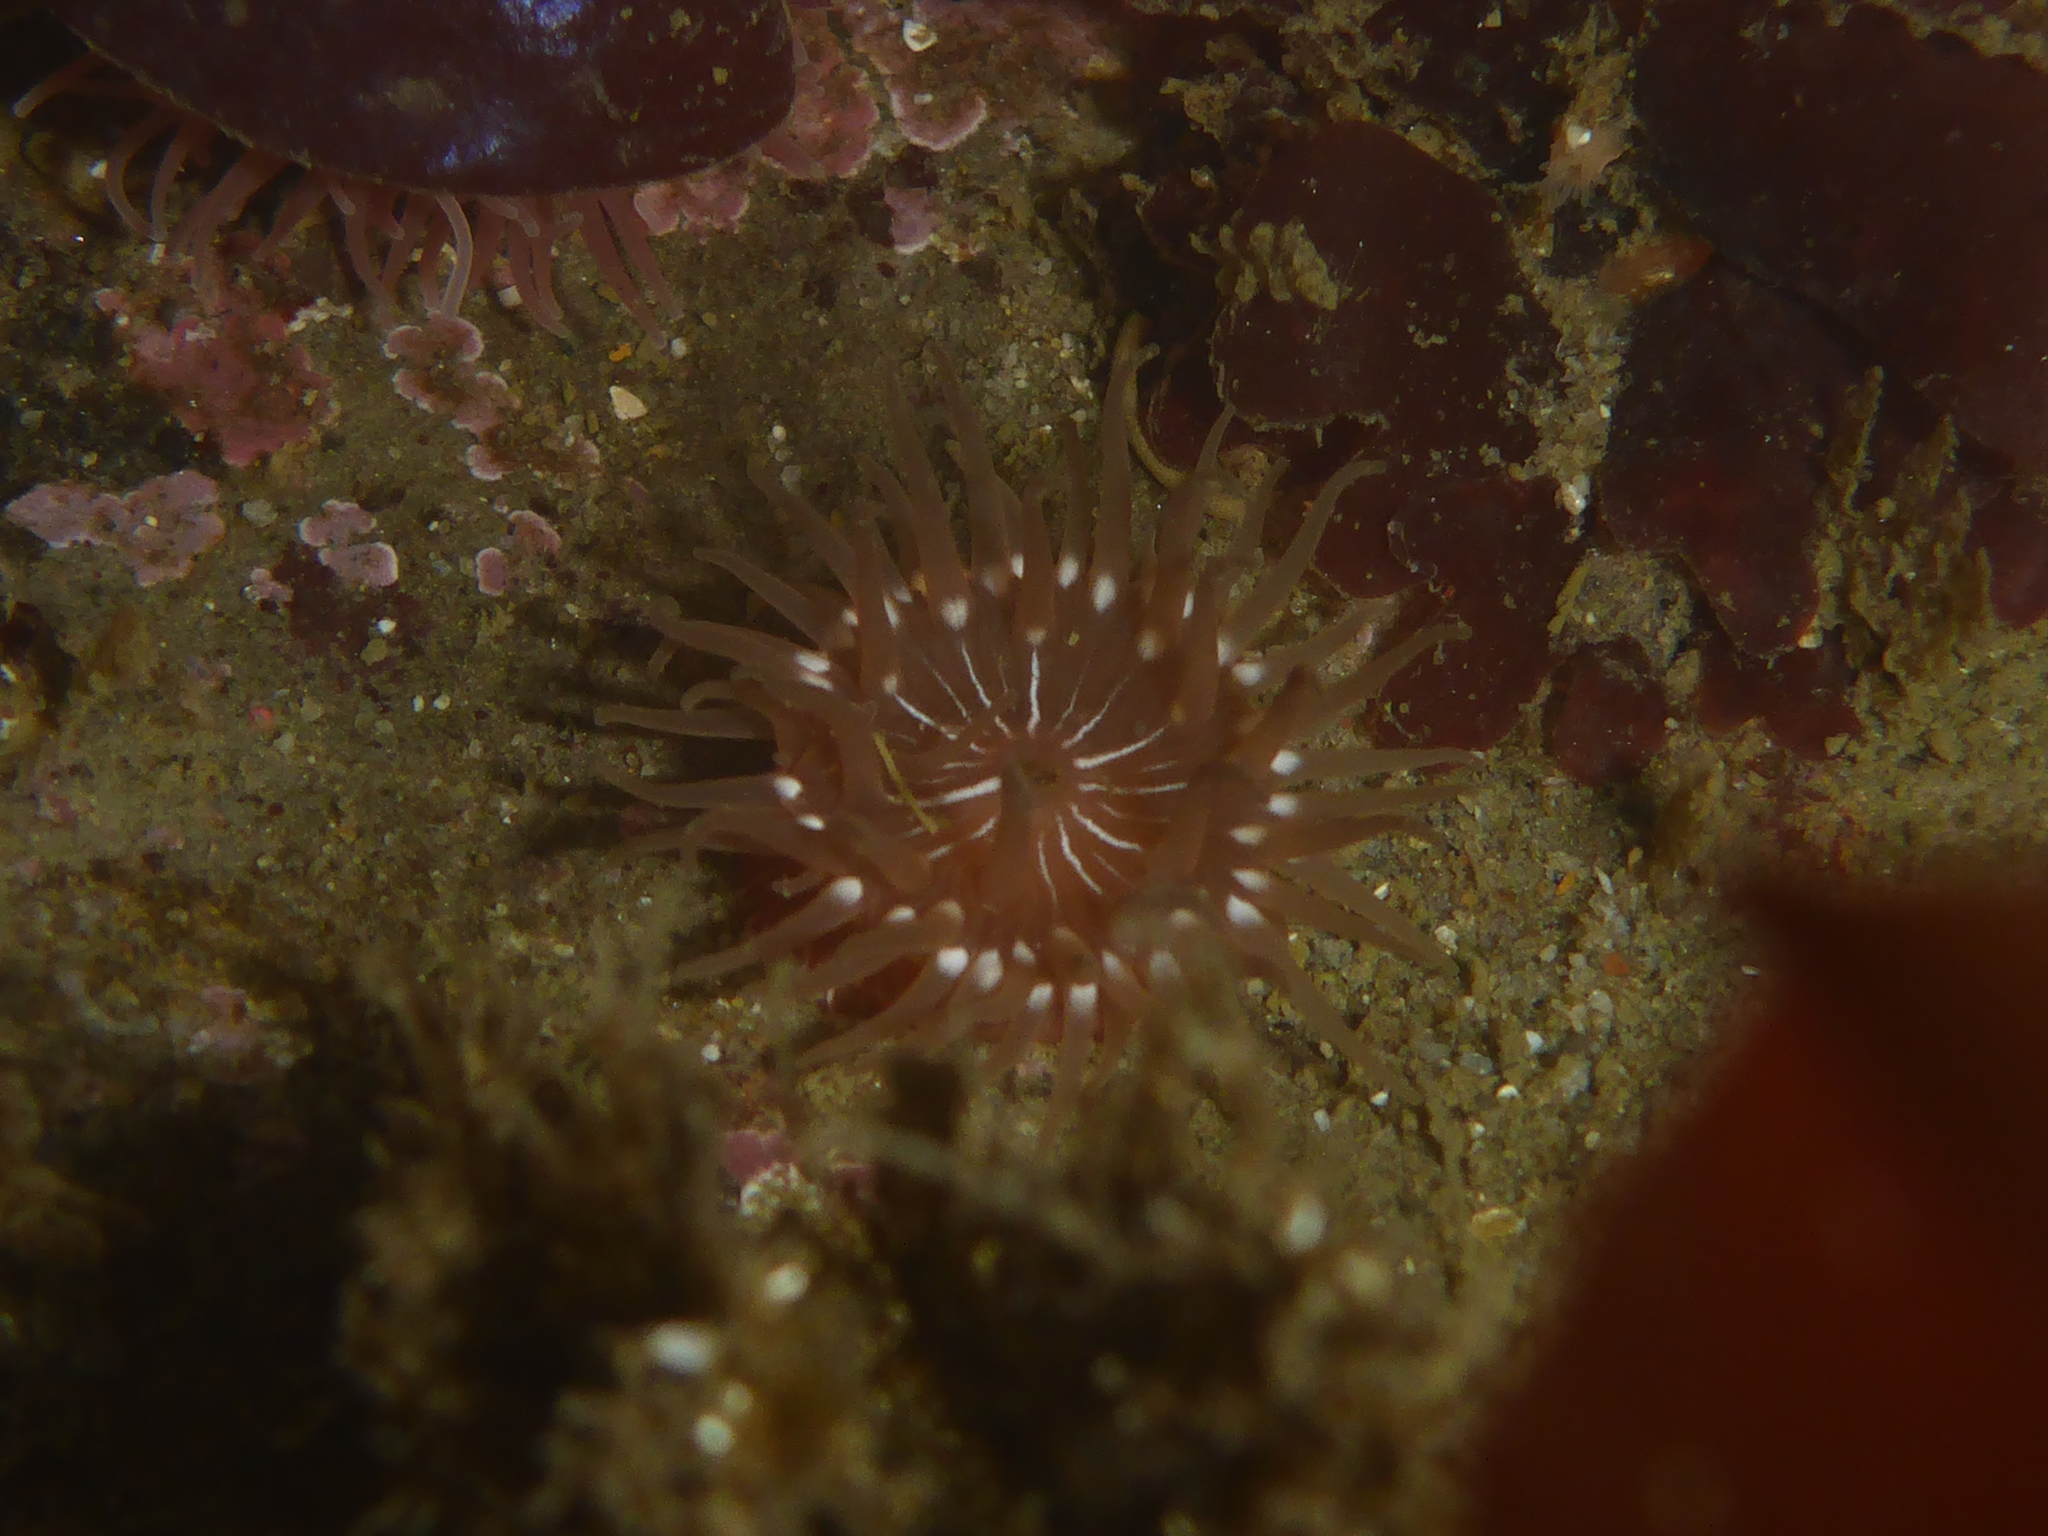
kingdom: Animalia
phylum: Cnidaria
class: Anthozoa
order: Actiniaria
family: Actiniidae
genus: Epiactis
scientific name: Epiactis prolifera
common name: Brooding anemone
